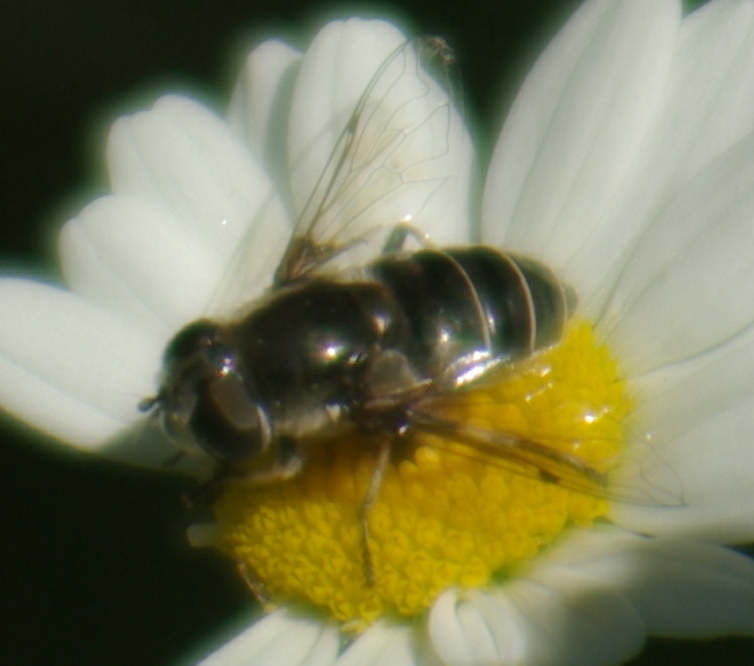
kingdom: Animalia
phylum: Arthropoda
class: Insecta
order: Diptera
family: Syrphidae
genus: Eristalis
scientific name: Eristalis dimidiata
